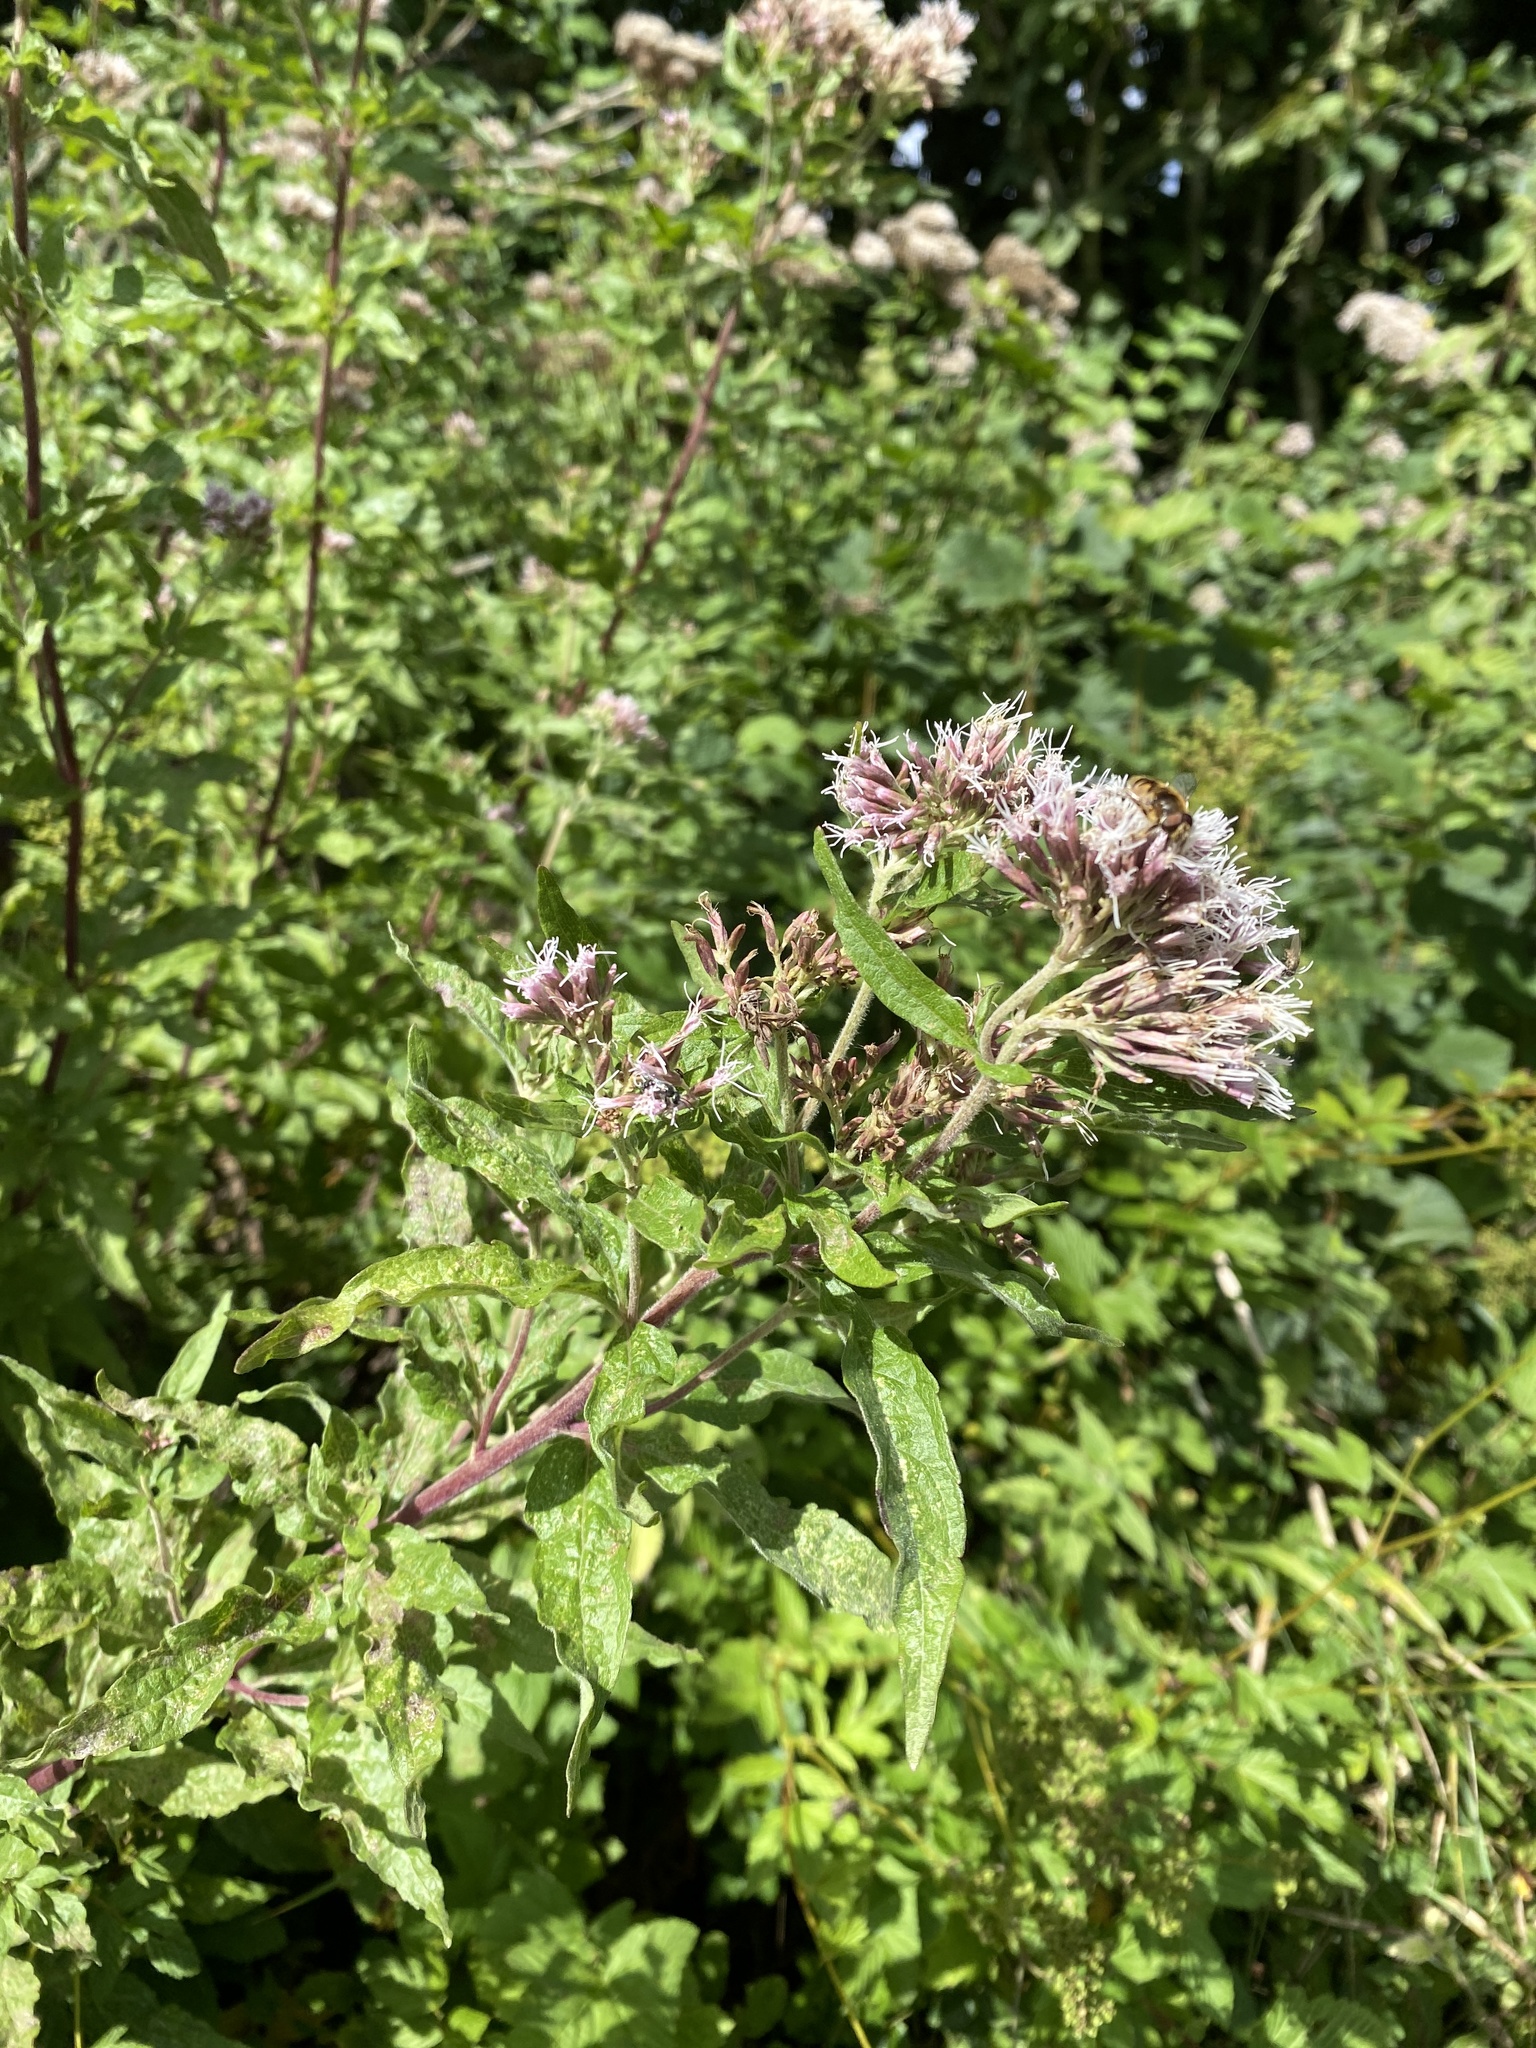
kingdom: Plantae
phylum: Tracheophyta
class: Magnoliopsida
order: Asterales
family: Asteraceae
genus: Eupatorium
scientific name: Eupatorium cannabinum
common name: Hemp-agrimony
